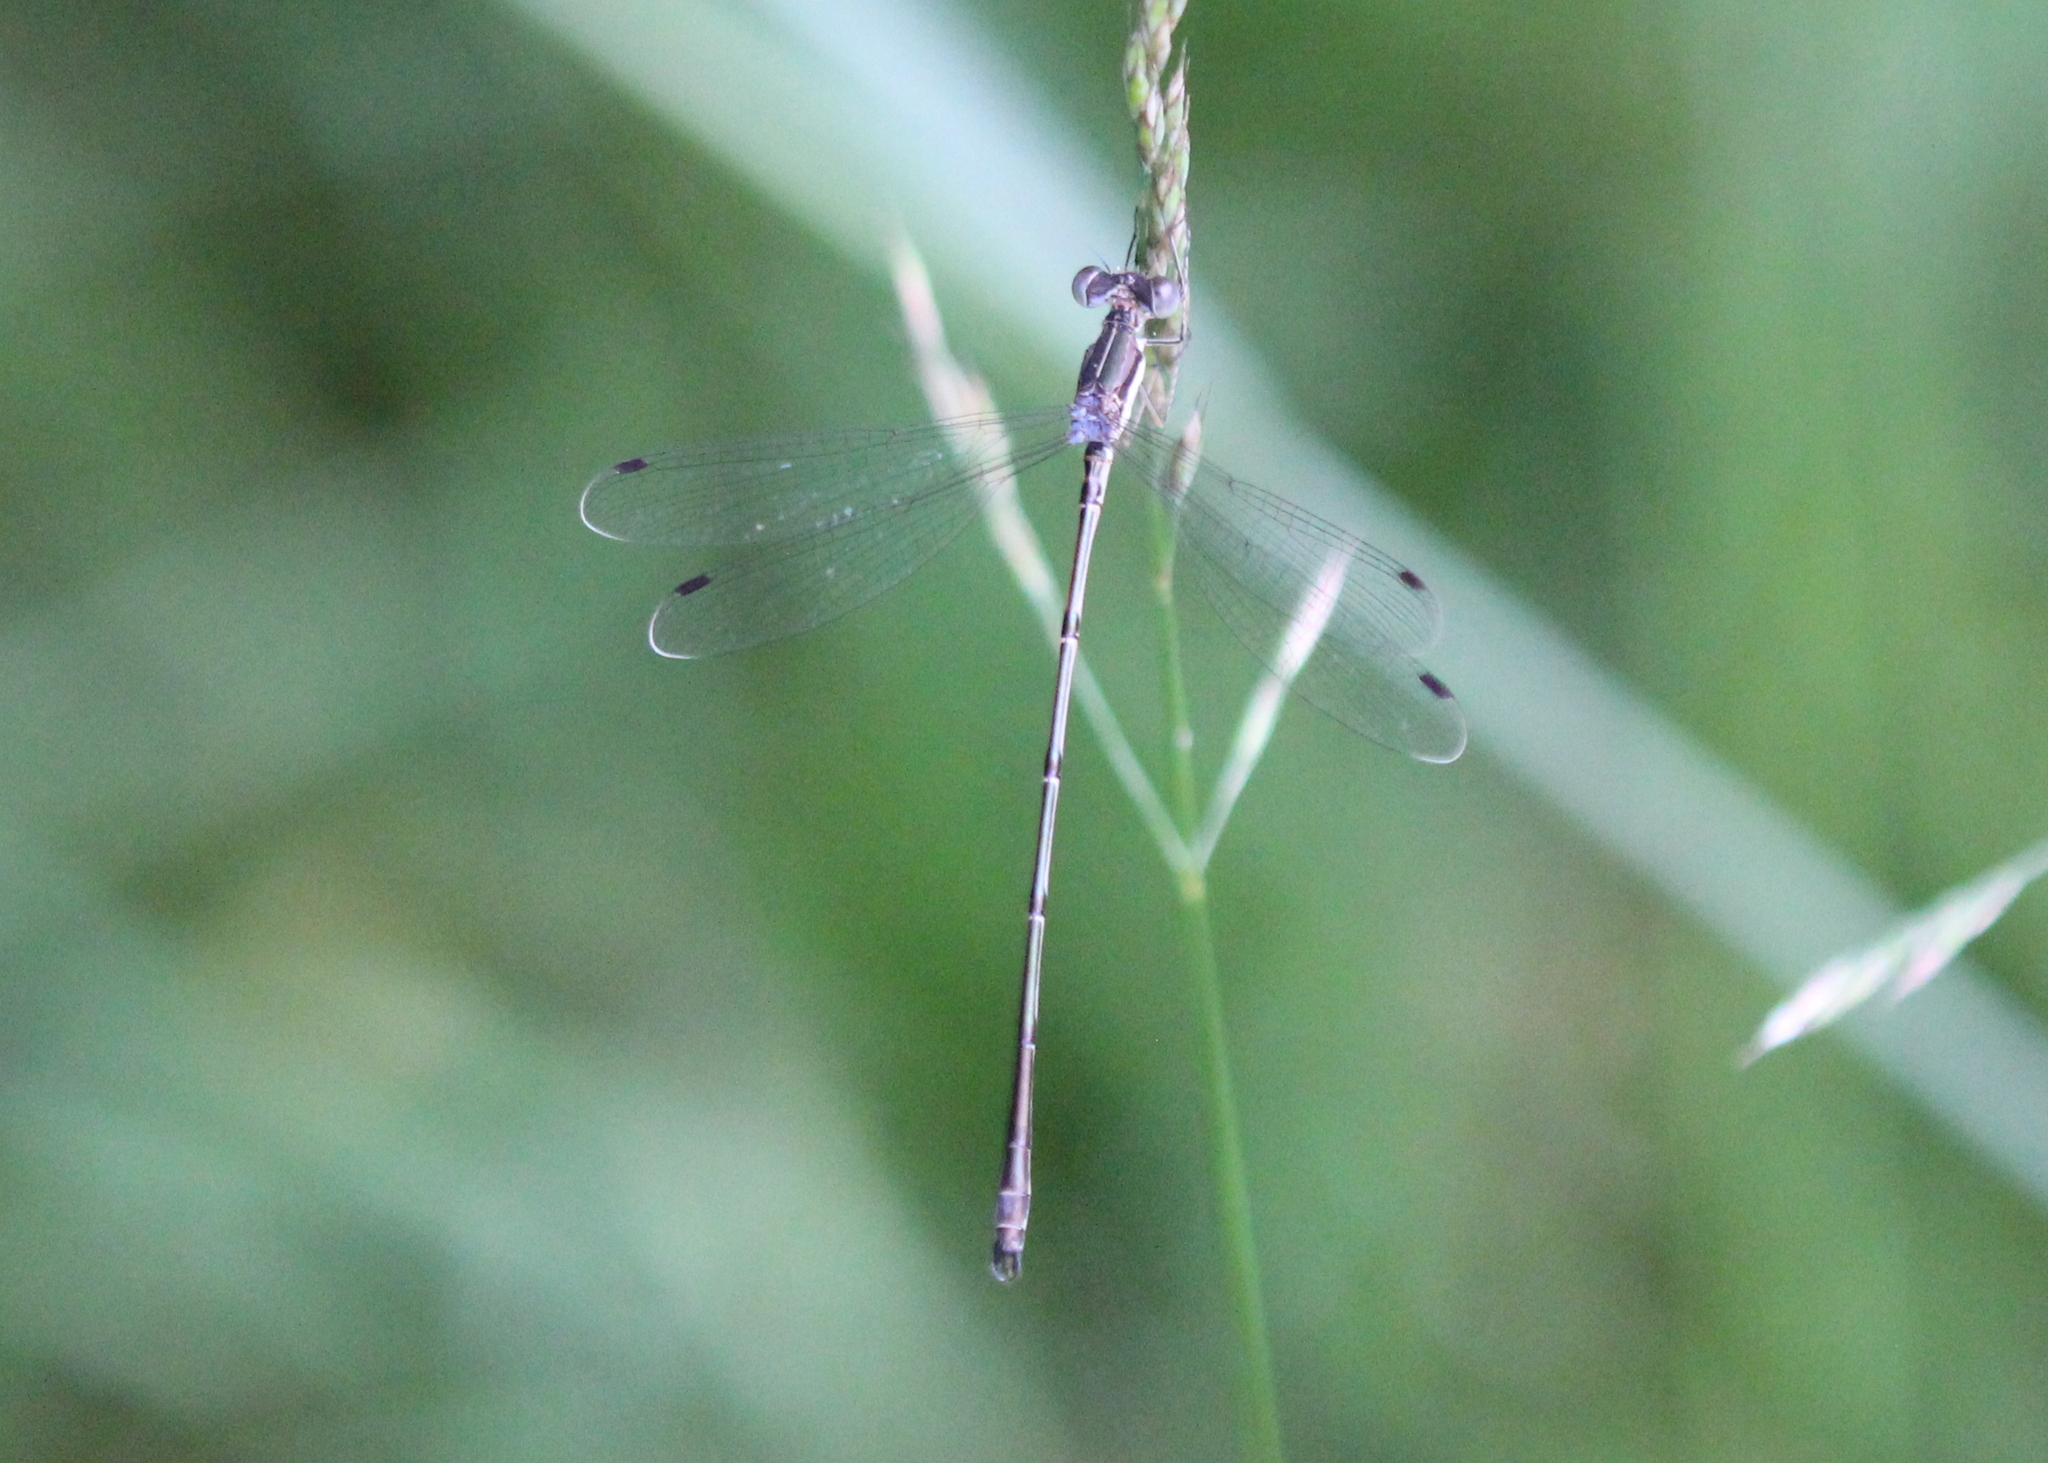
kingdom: Animalia
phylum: Arthropoda
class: Insecta
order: Odonata
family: Lestidae
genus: Lestes
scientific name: Lestes rectangularis
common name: Slender spreadwing
